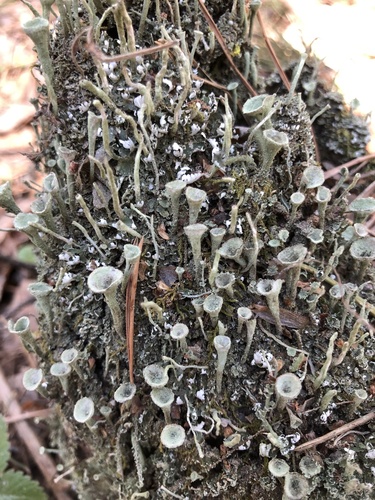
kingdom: Fungi
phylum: Ascomycota
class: Lecanoromycetes
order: Lecanorales
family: Cladoniaceae
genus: Cladonia
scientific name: Cladonia
